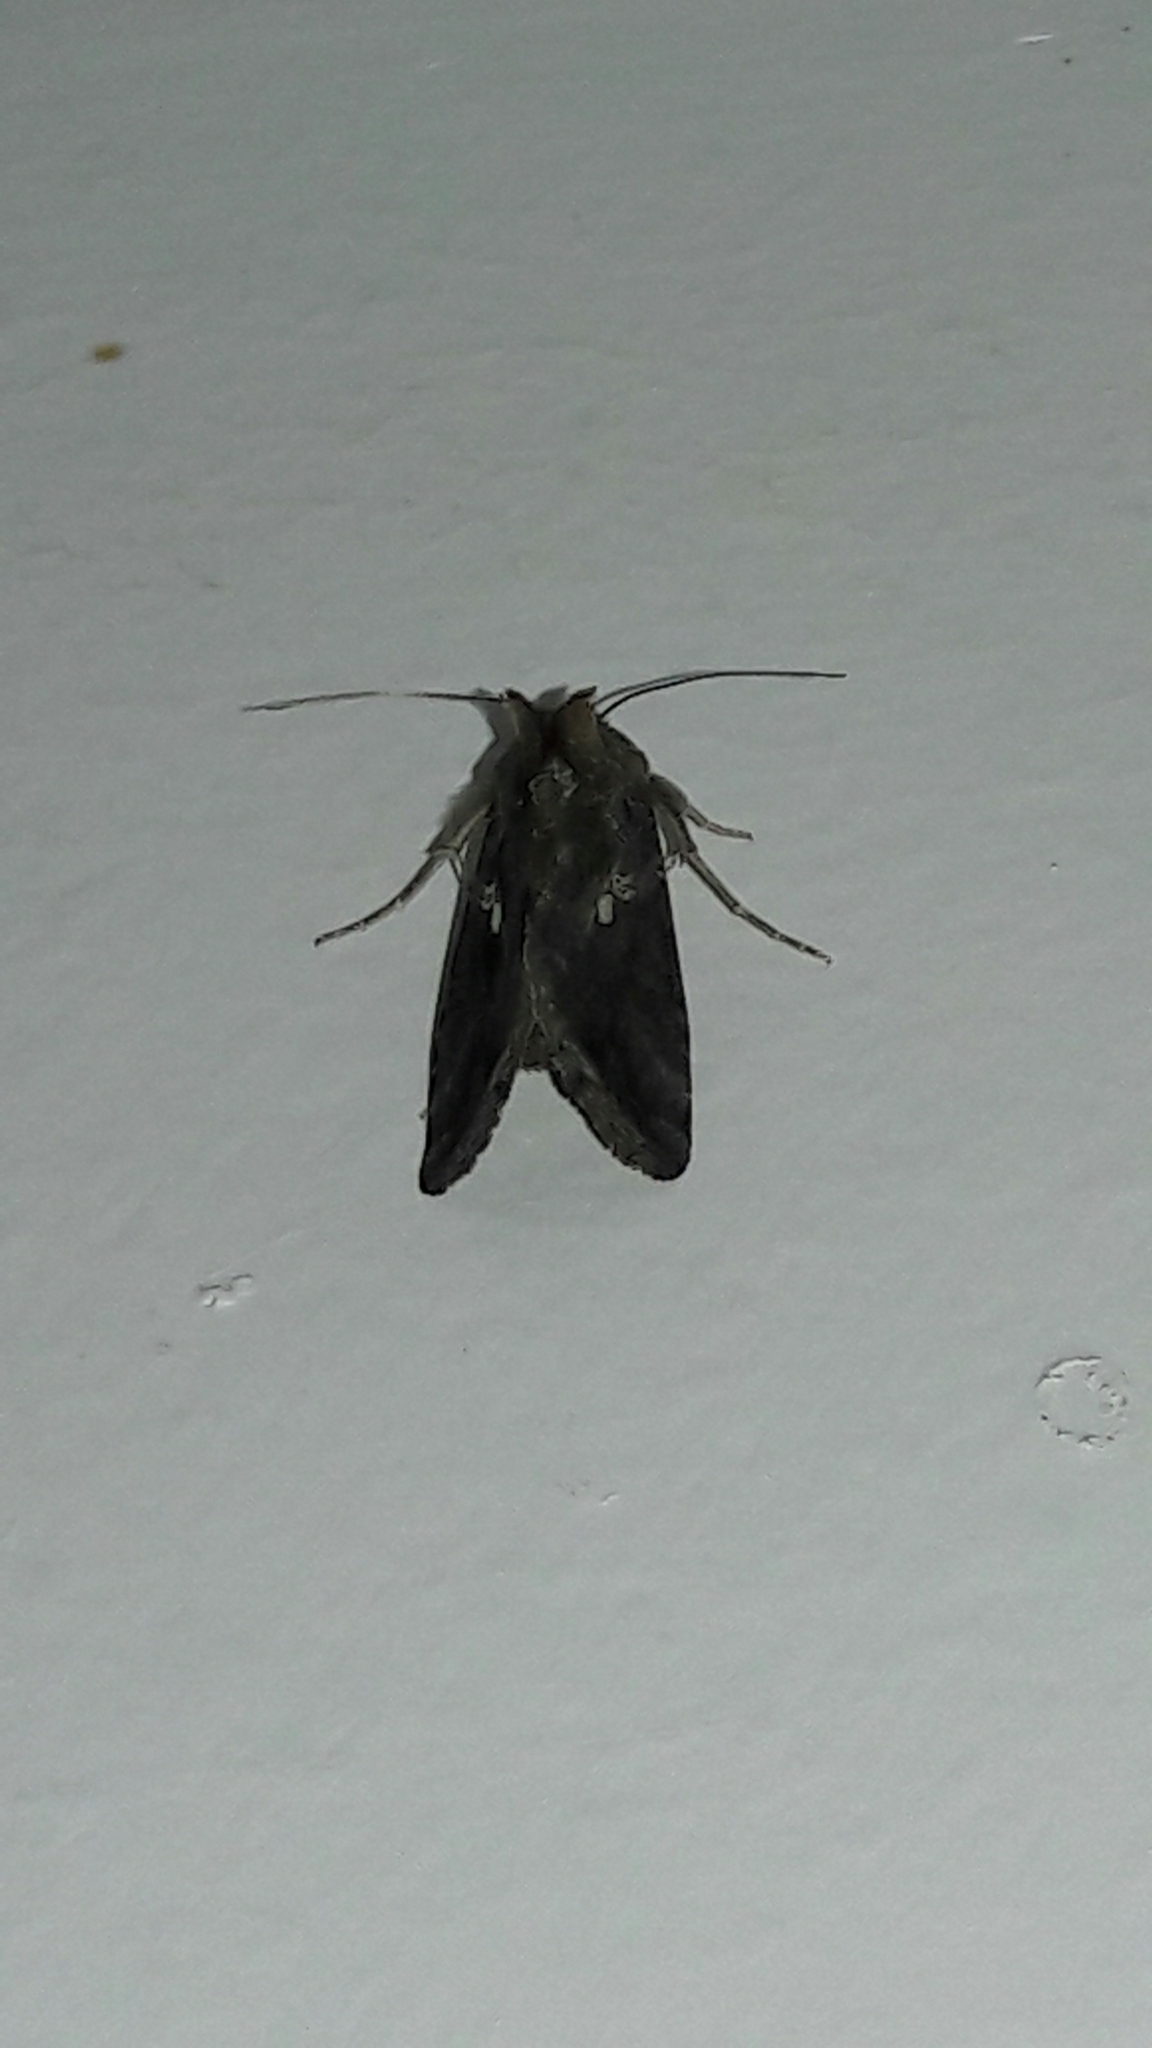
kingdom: Animalia
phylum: Arthropoda
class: Insecta
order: Lepidoptera
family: Noctuidae
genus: Chrysodeixis
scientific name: Chrysodeixis includens
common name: Cutworm moth
